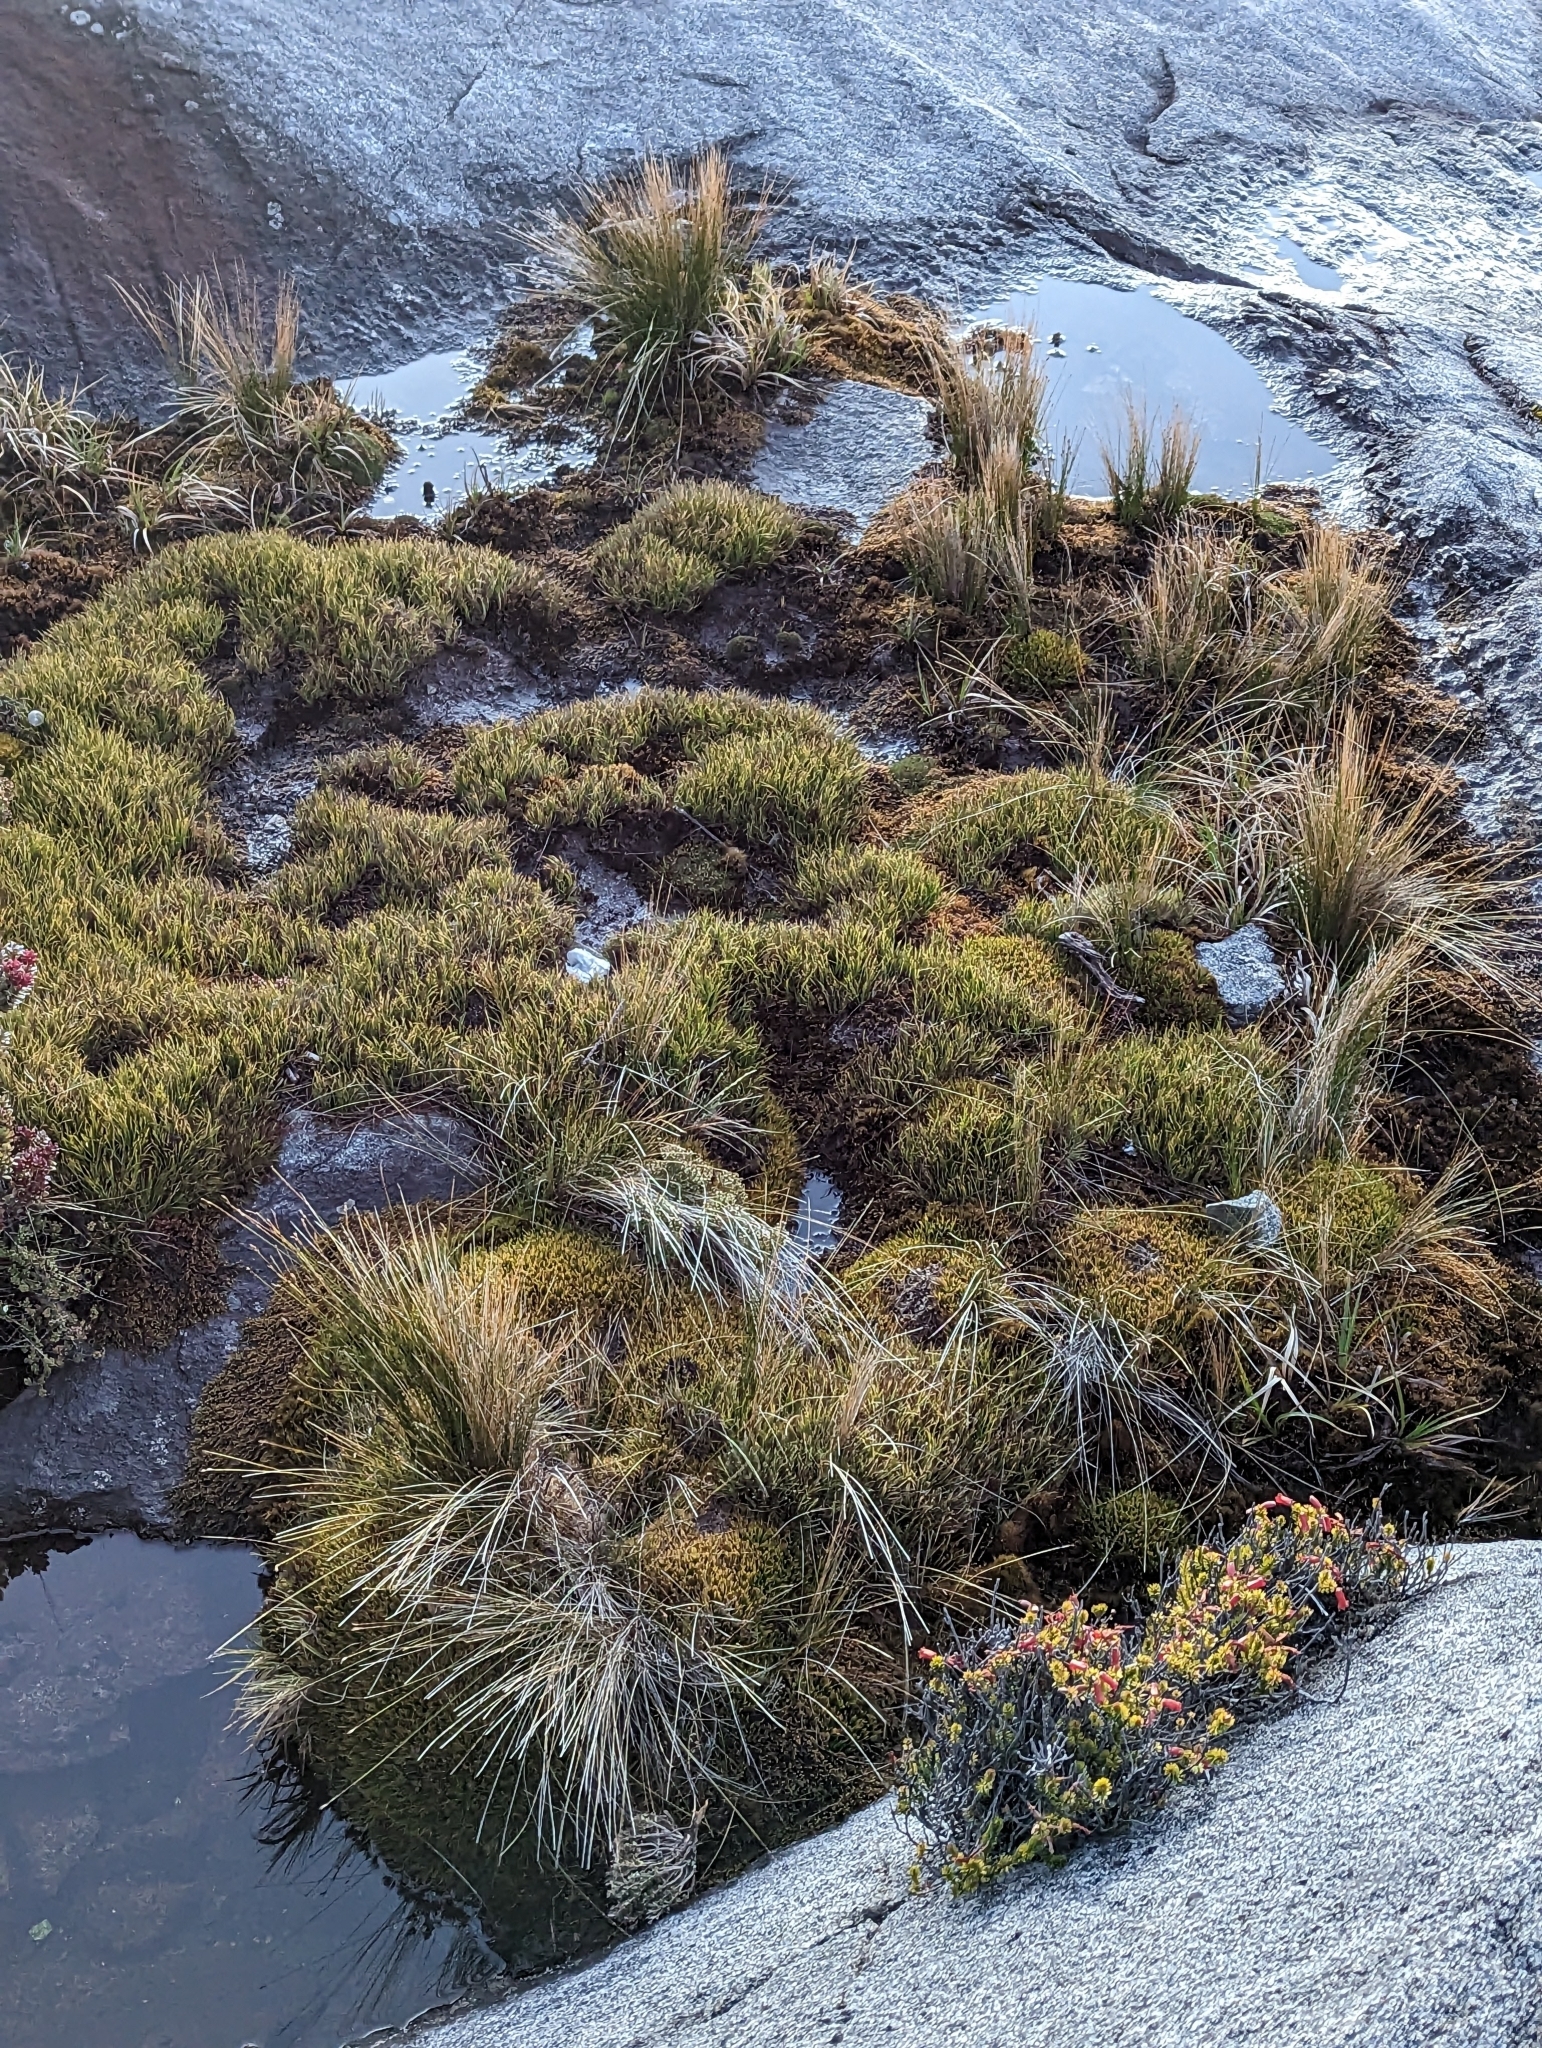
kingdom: Plantae
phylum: Tracheophyta
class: Magnoliopsida
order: Ericales
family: Ericaceae
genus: Rhododendron
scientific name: Rhododendron ericoides
